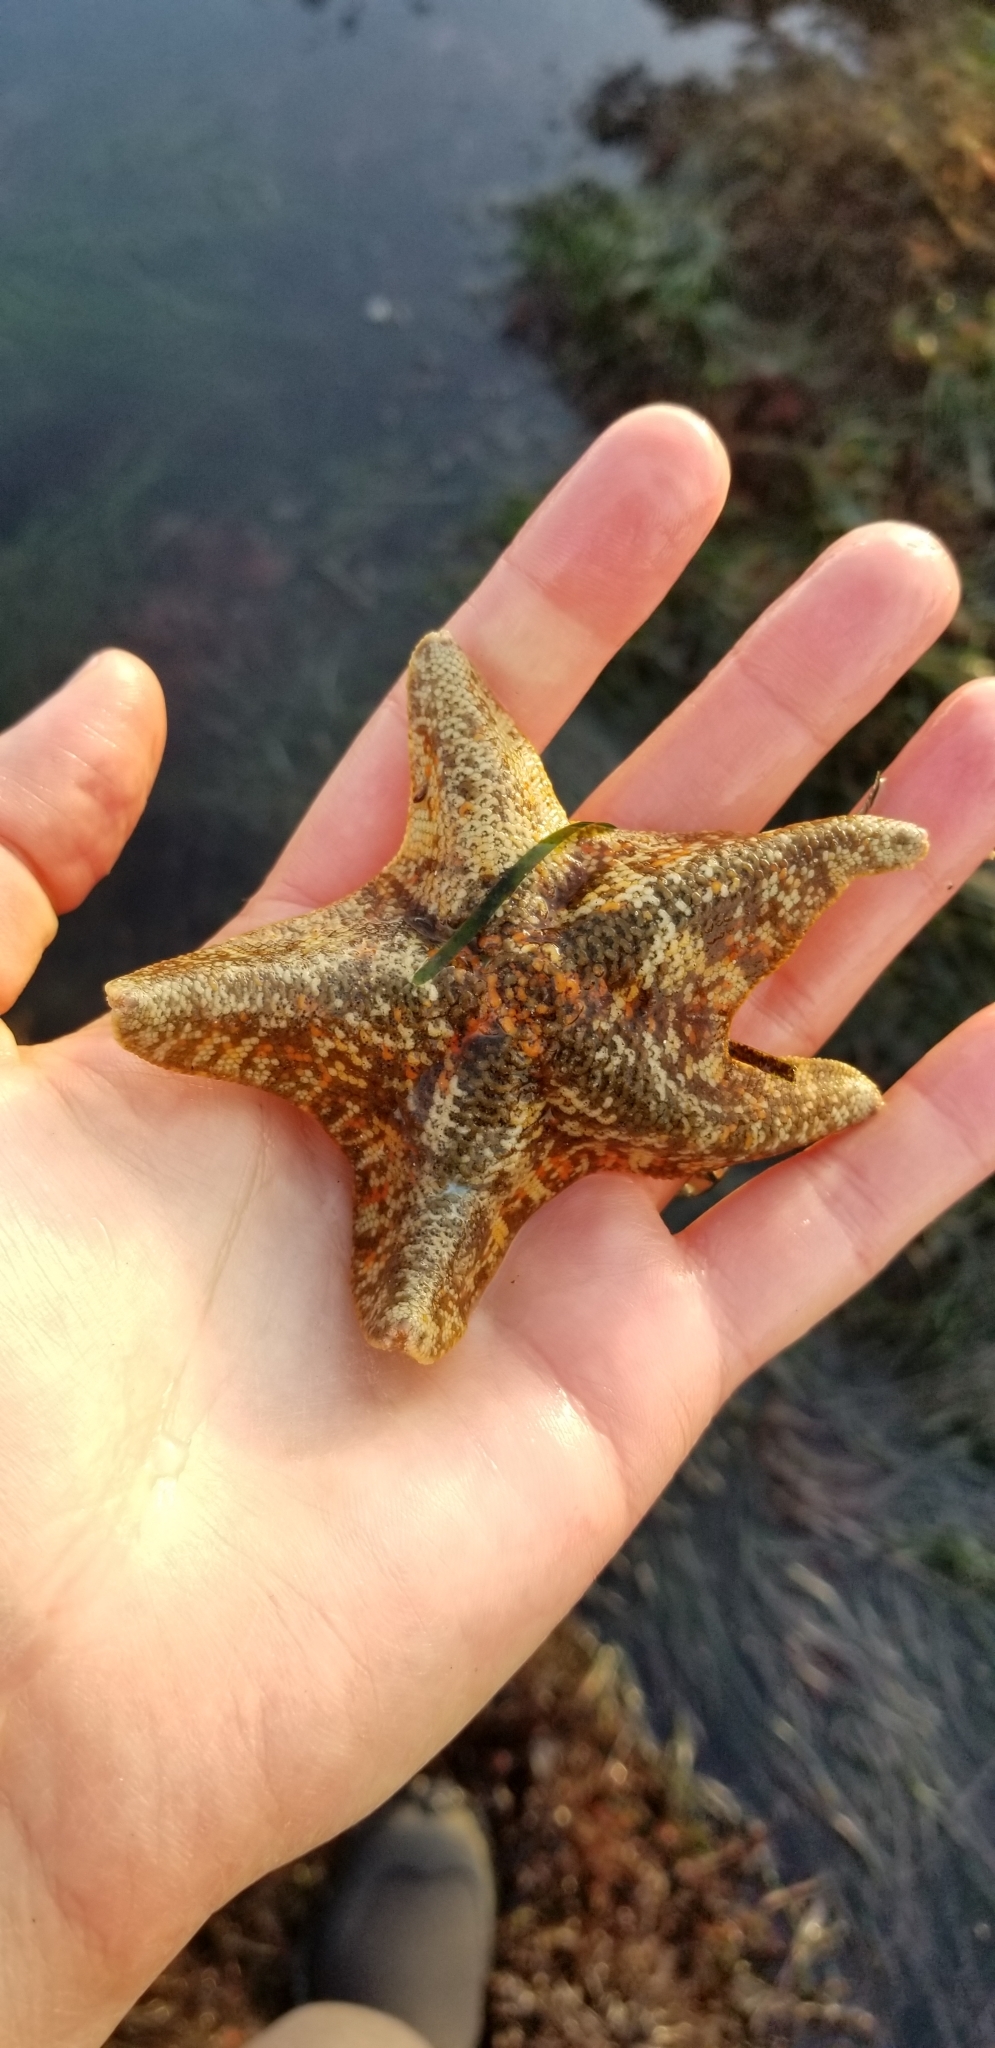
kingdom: Animalia
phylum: Echinodermata
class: Asteroidea
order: Valvatida
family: Asterinidae
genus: Patiria
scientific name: Patiria miniata
